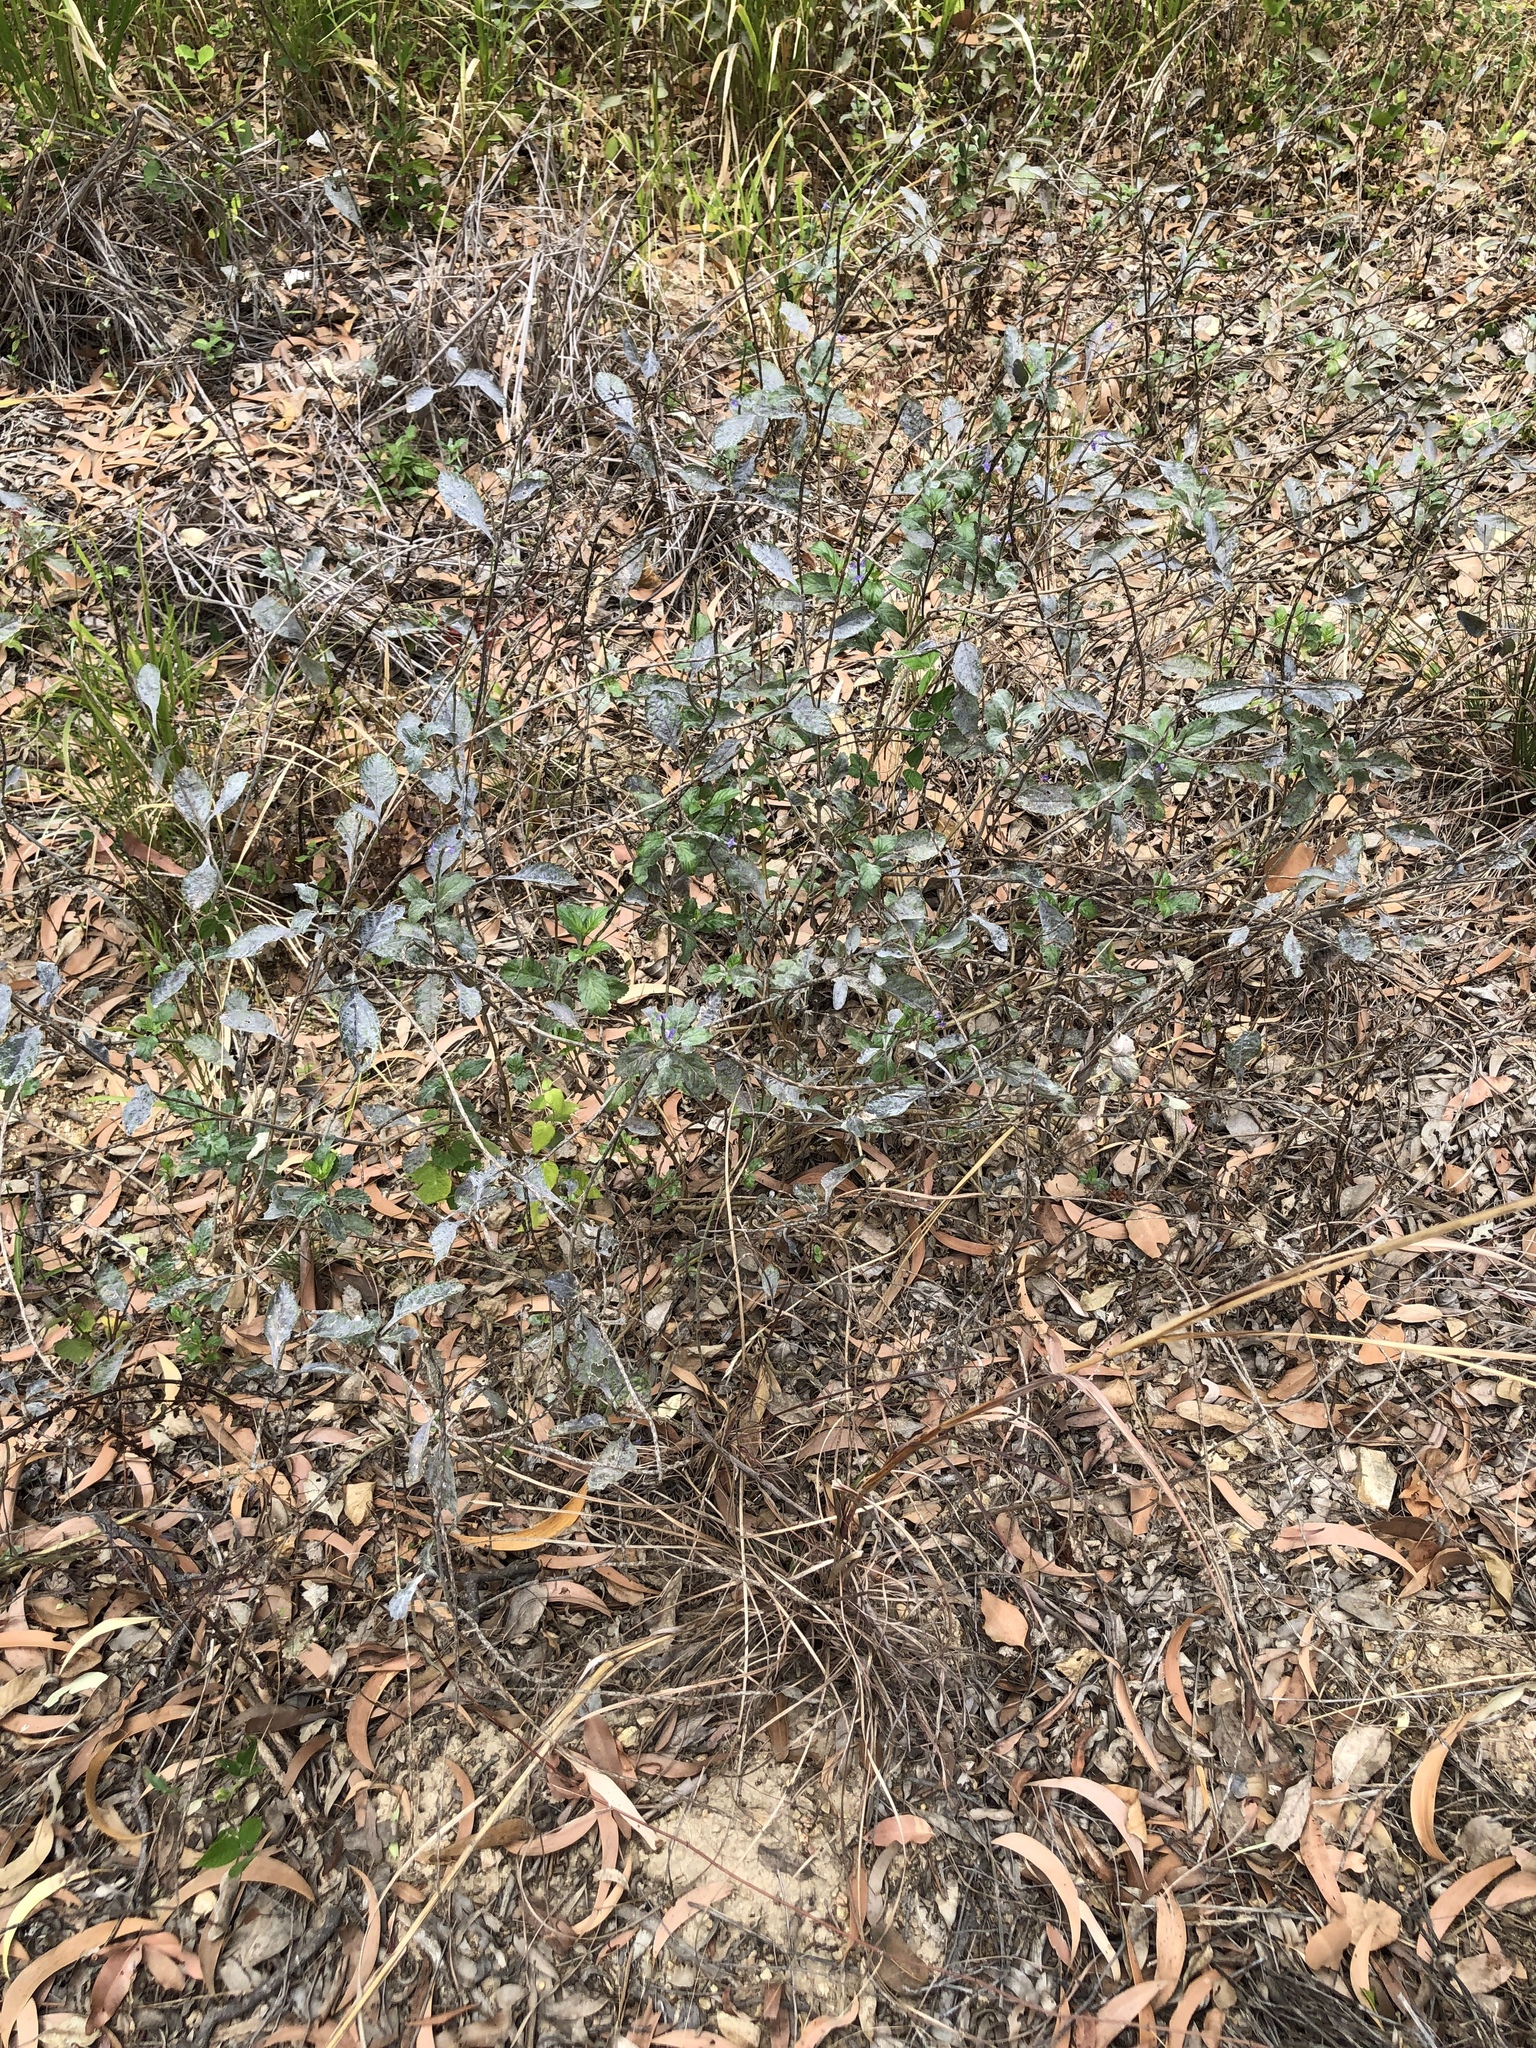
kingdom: Plantae
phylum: Tracheophyta
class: Magnoliopsida
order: Lamiales
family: Verbenaceae
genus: Stachytarpheta
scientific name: Stachytarpheta jamaicensis
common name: Light-blue snakeweed
